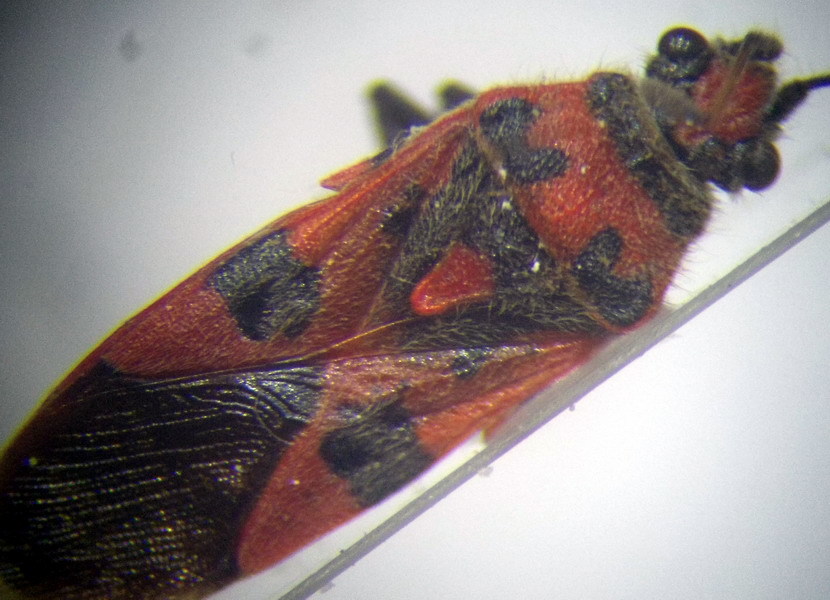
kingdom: Animalia
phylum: Arthropoda
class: Insecta
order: Hemiptera
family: Rhopalidae
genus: Corizus
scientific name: Corizus hyoscyami
